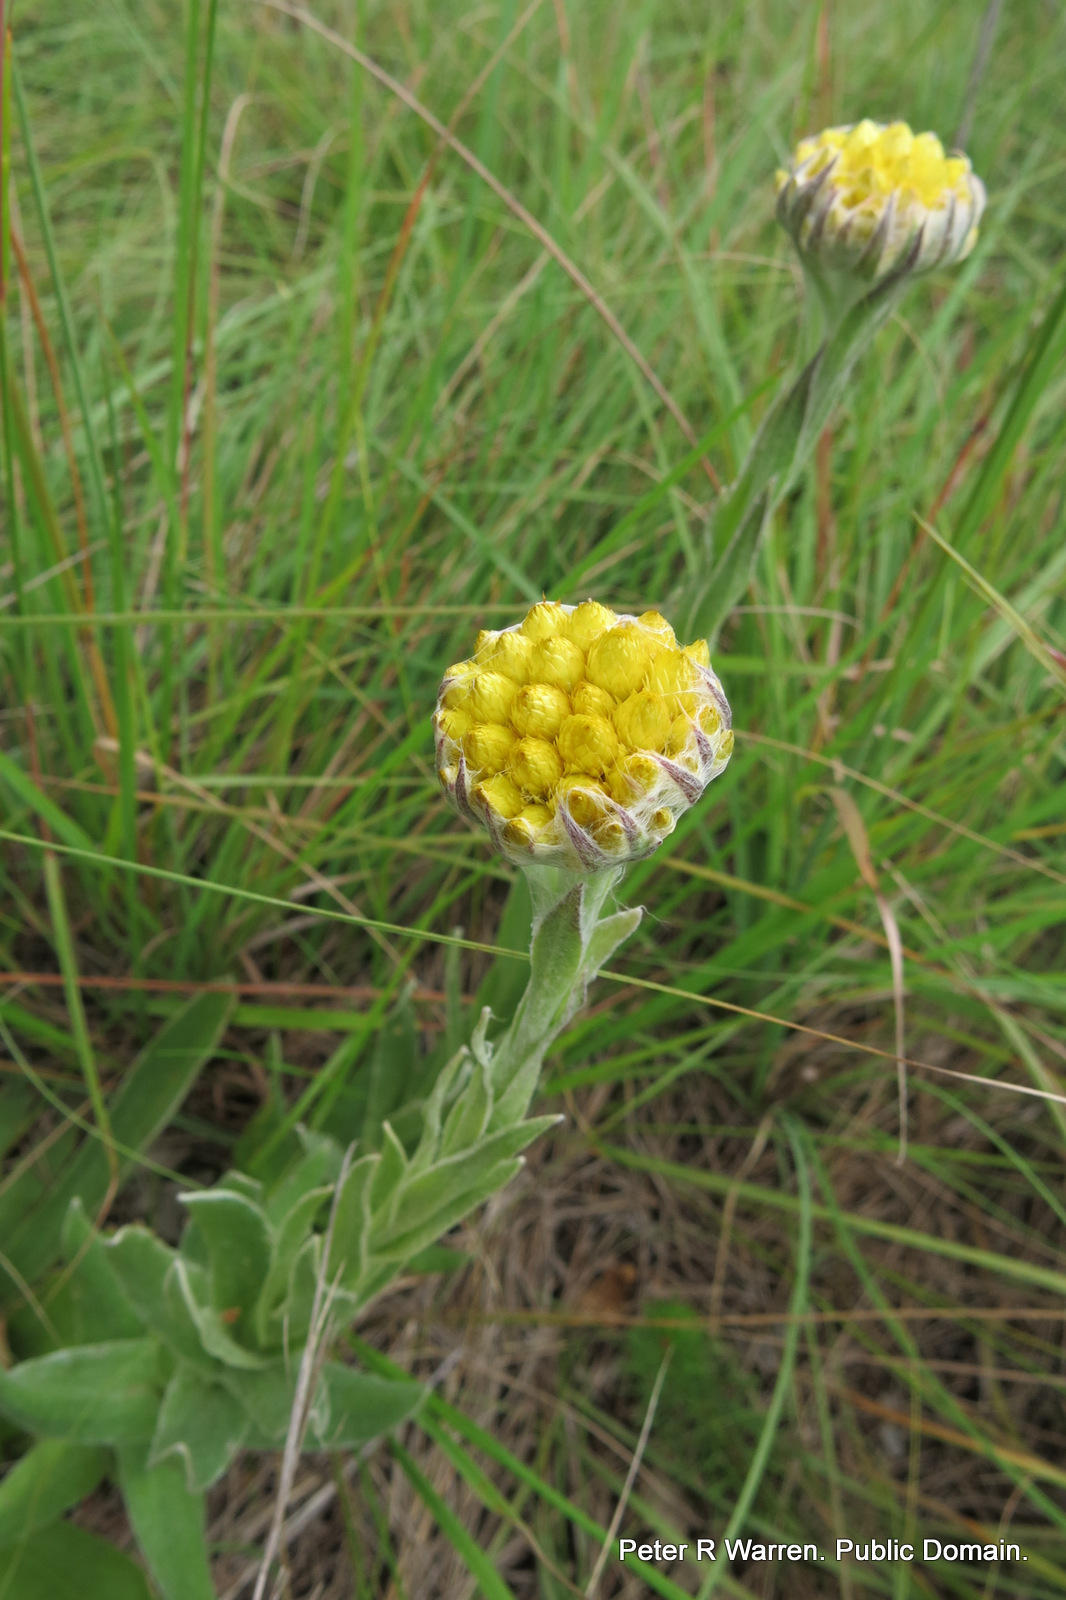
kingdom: Plantae
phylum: Tracheophyta
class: Magnoliopsida
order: Asterales
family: Asteraceae
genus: Helichrysum
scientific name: Helichrysum auriceps
